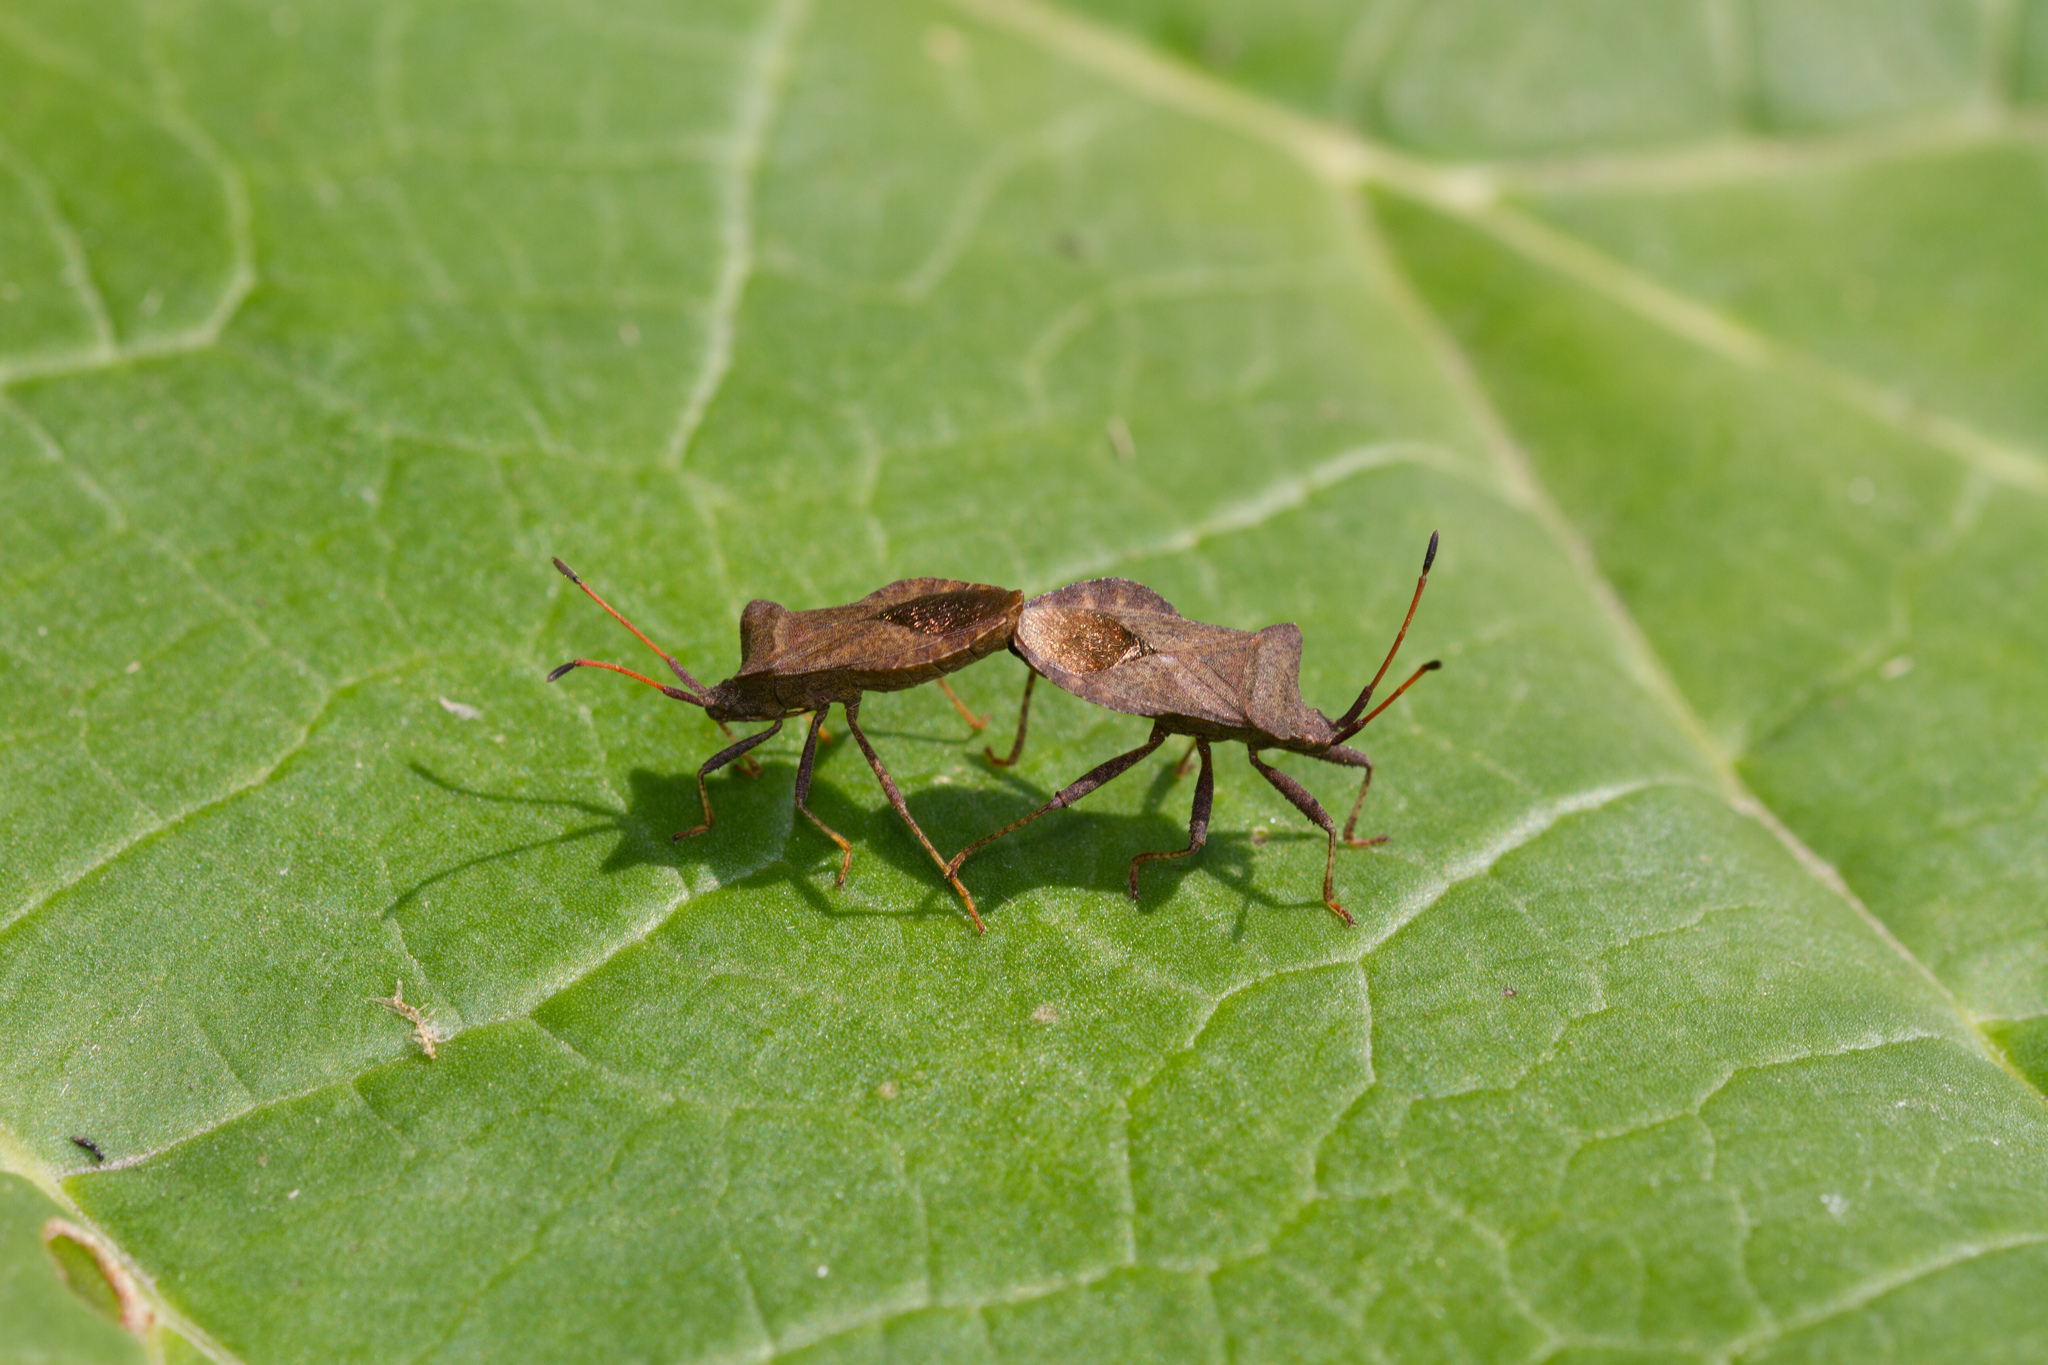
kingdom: Animalia
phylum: Arthropoda
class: Insecta
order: Hemiptera
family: Coreidae
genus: Coreus
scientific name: Coreus marginatus
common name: Dock bug
